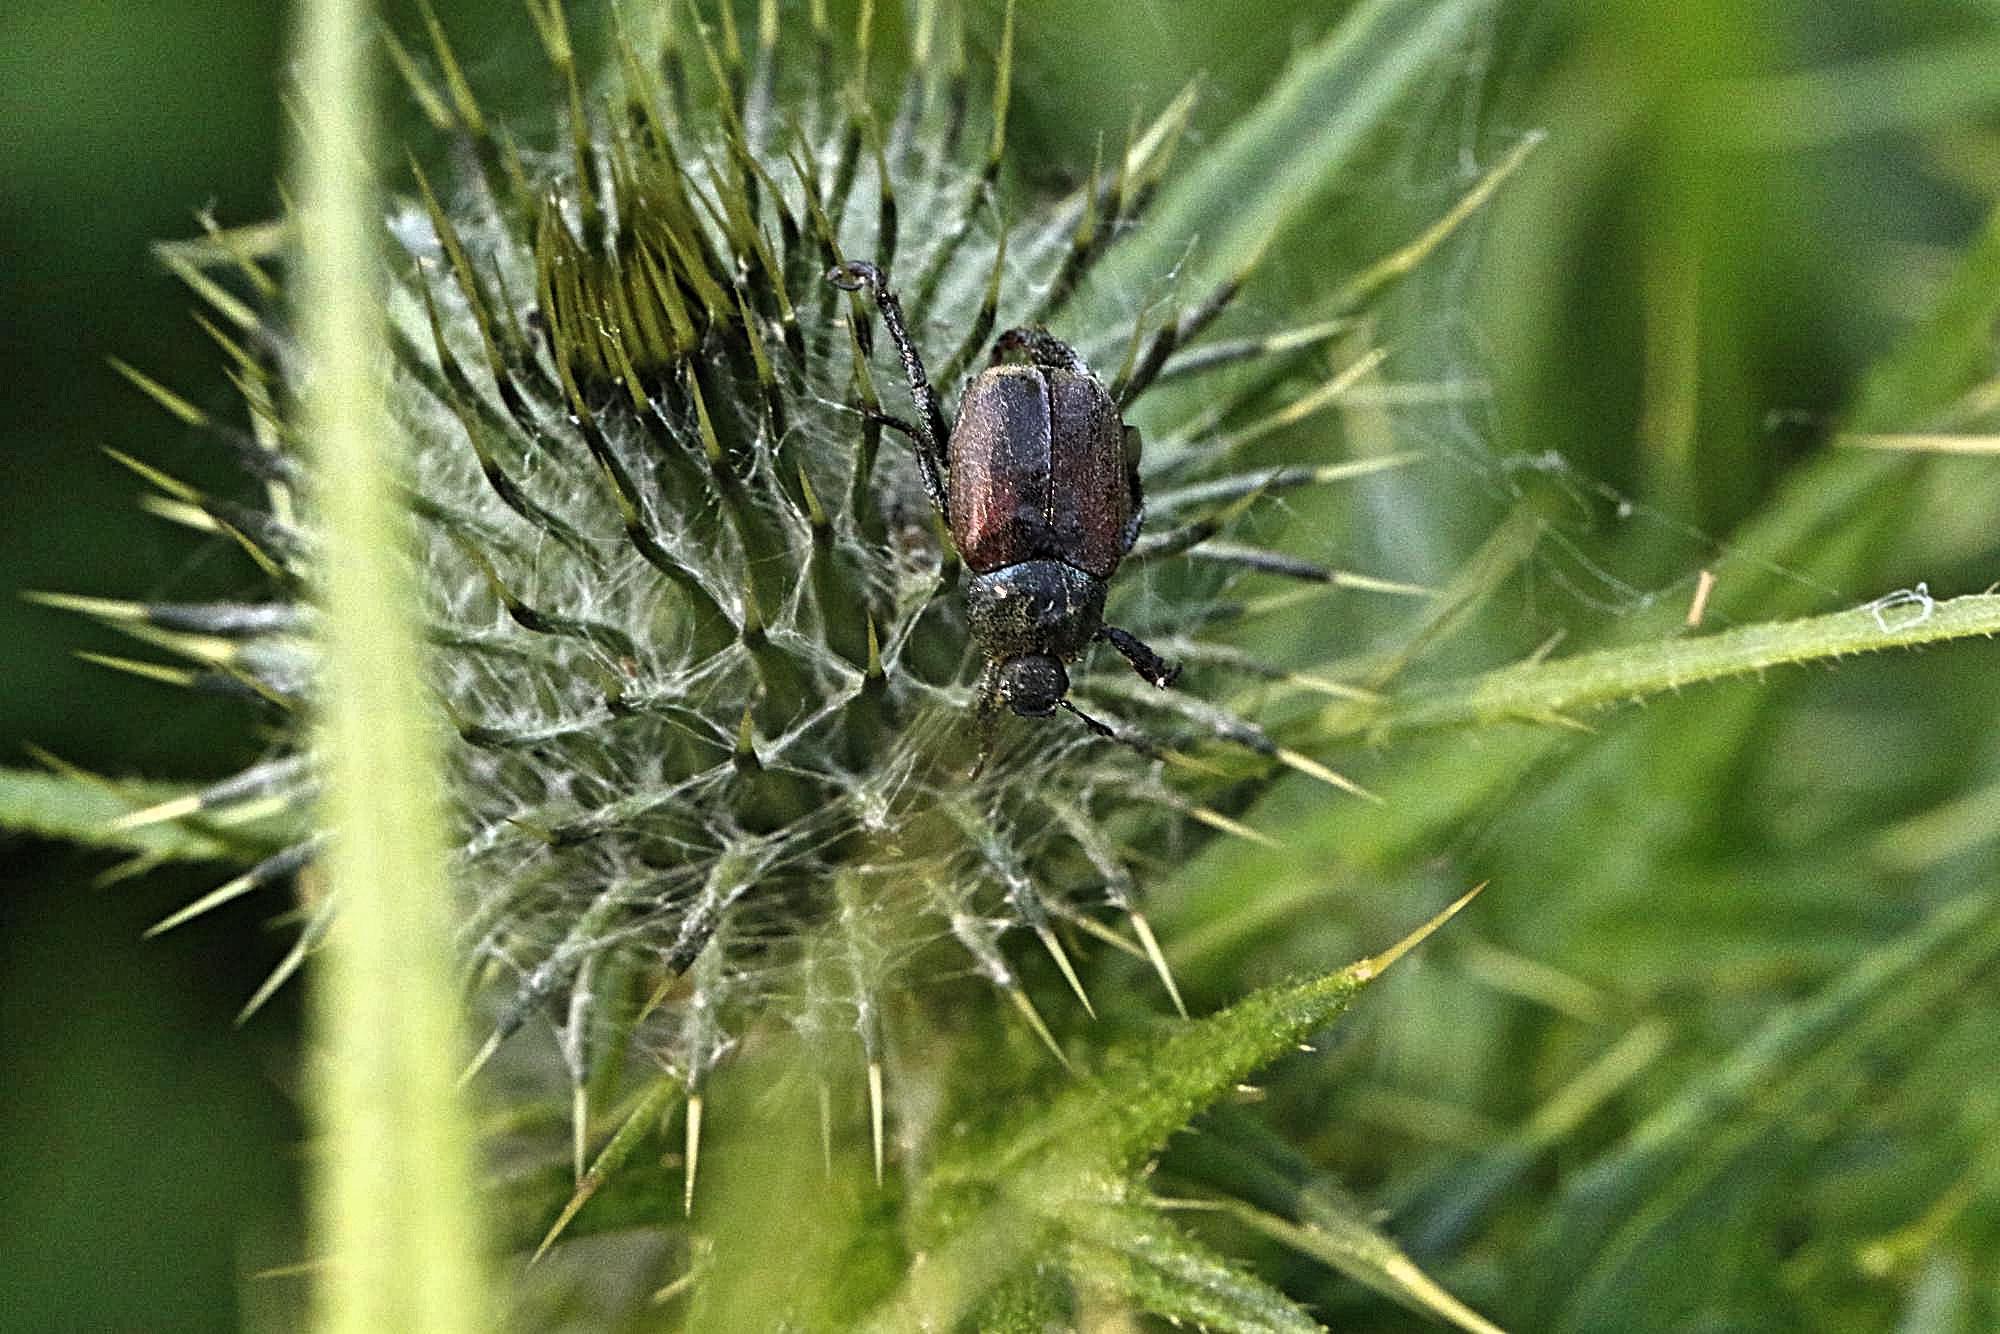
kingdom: Plantae
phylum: Tracheophyta
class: Magnoliopsida
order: Asterales
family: Asteraceae
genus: Cirsium
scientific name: Cirsium vulgare
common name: Bull thistle
